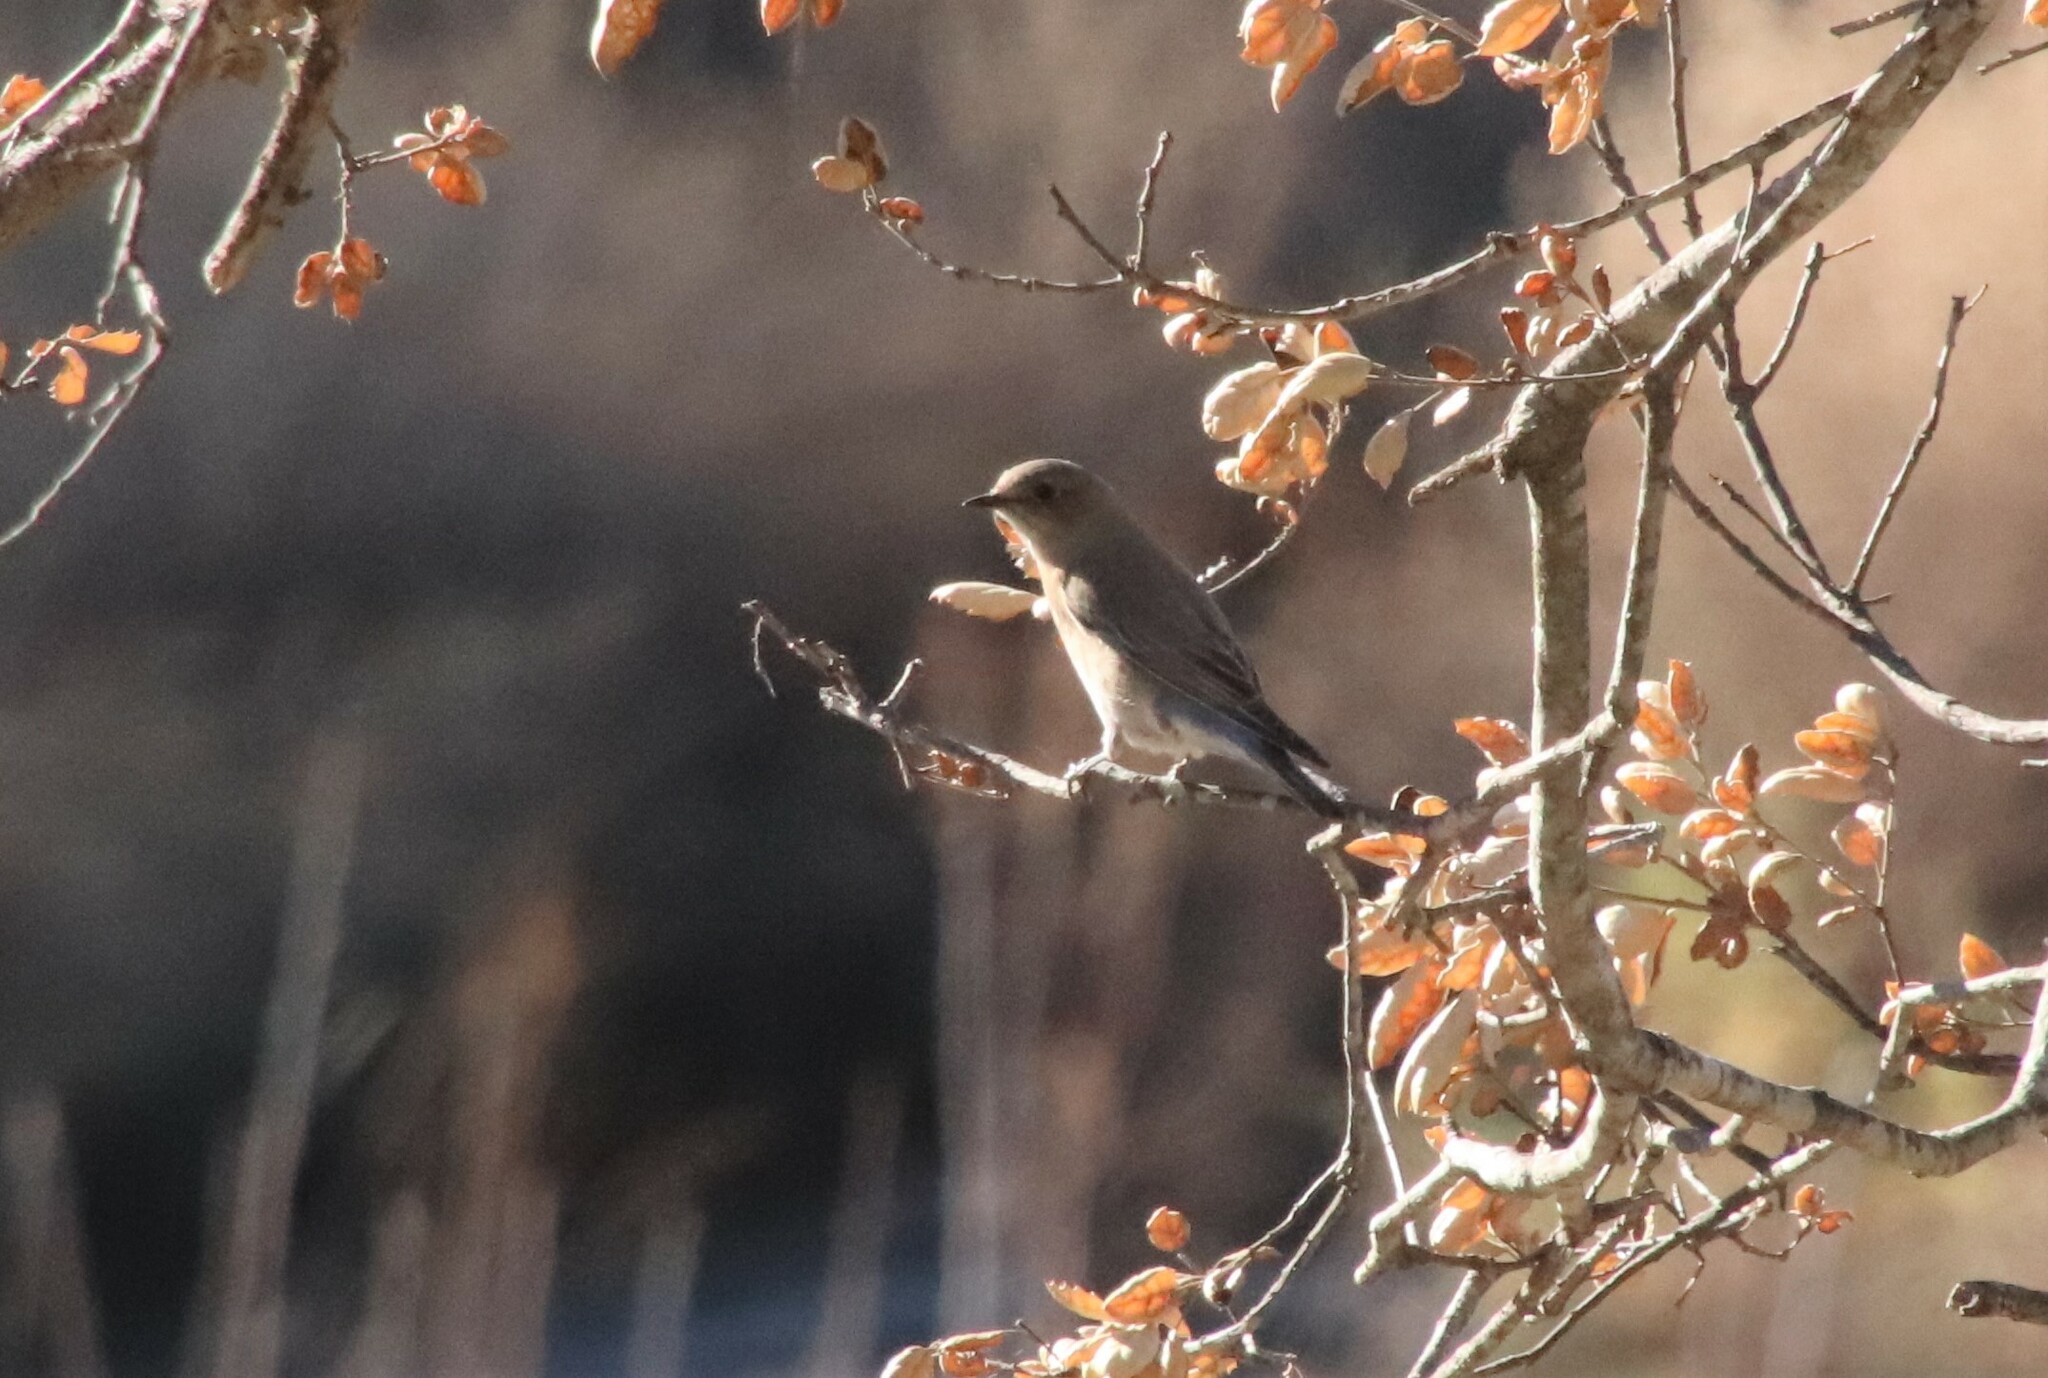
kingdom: Animalia
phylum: Chordata
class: Aves
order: Passeriformes
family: Turdidae
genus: Sialia
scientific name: Sialia mexicana
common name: Western bluebird
